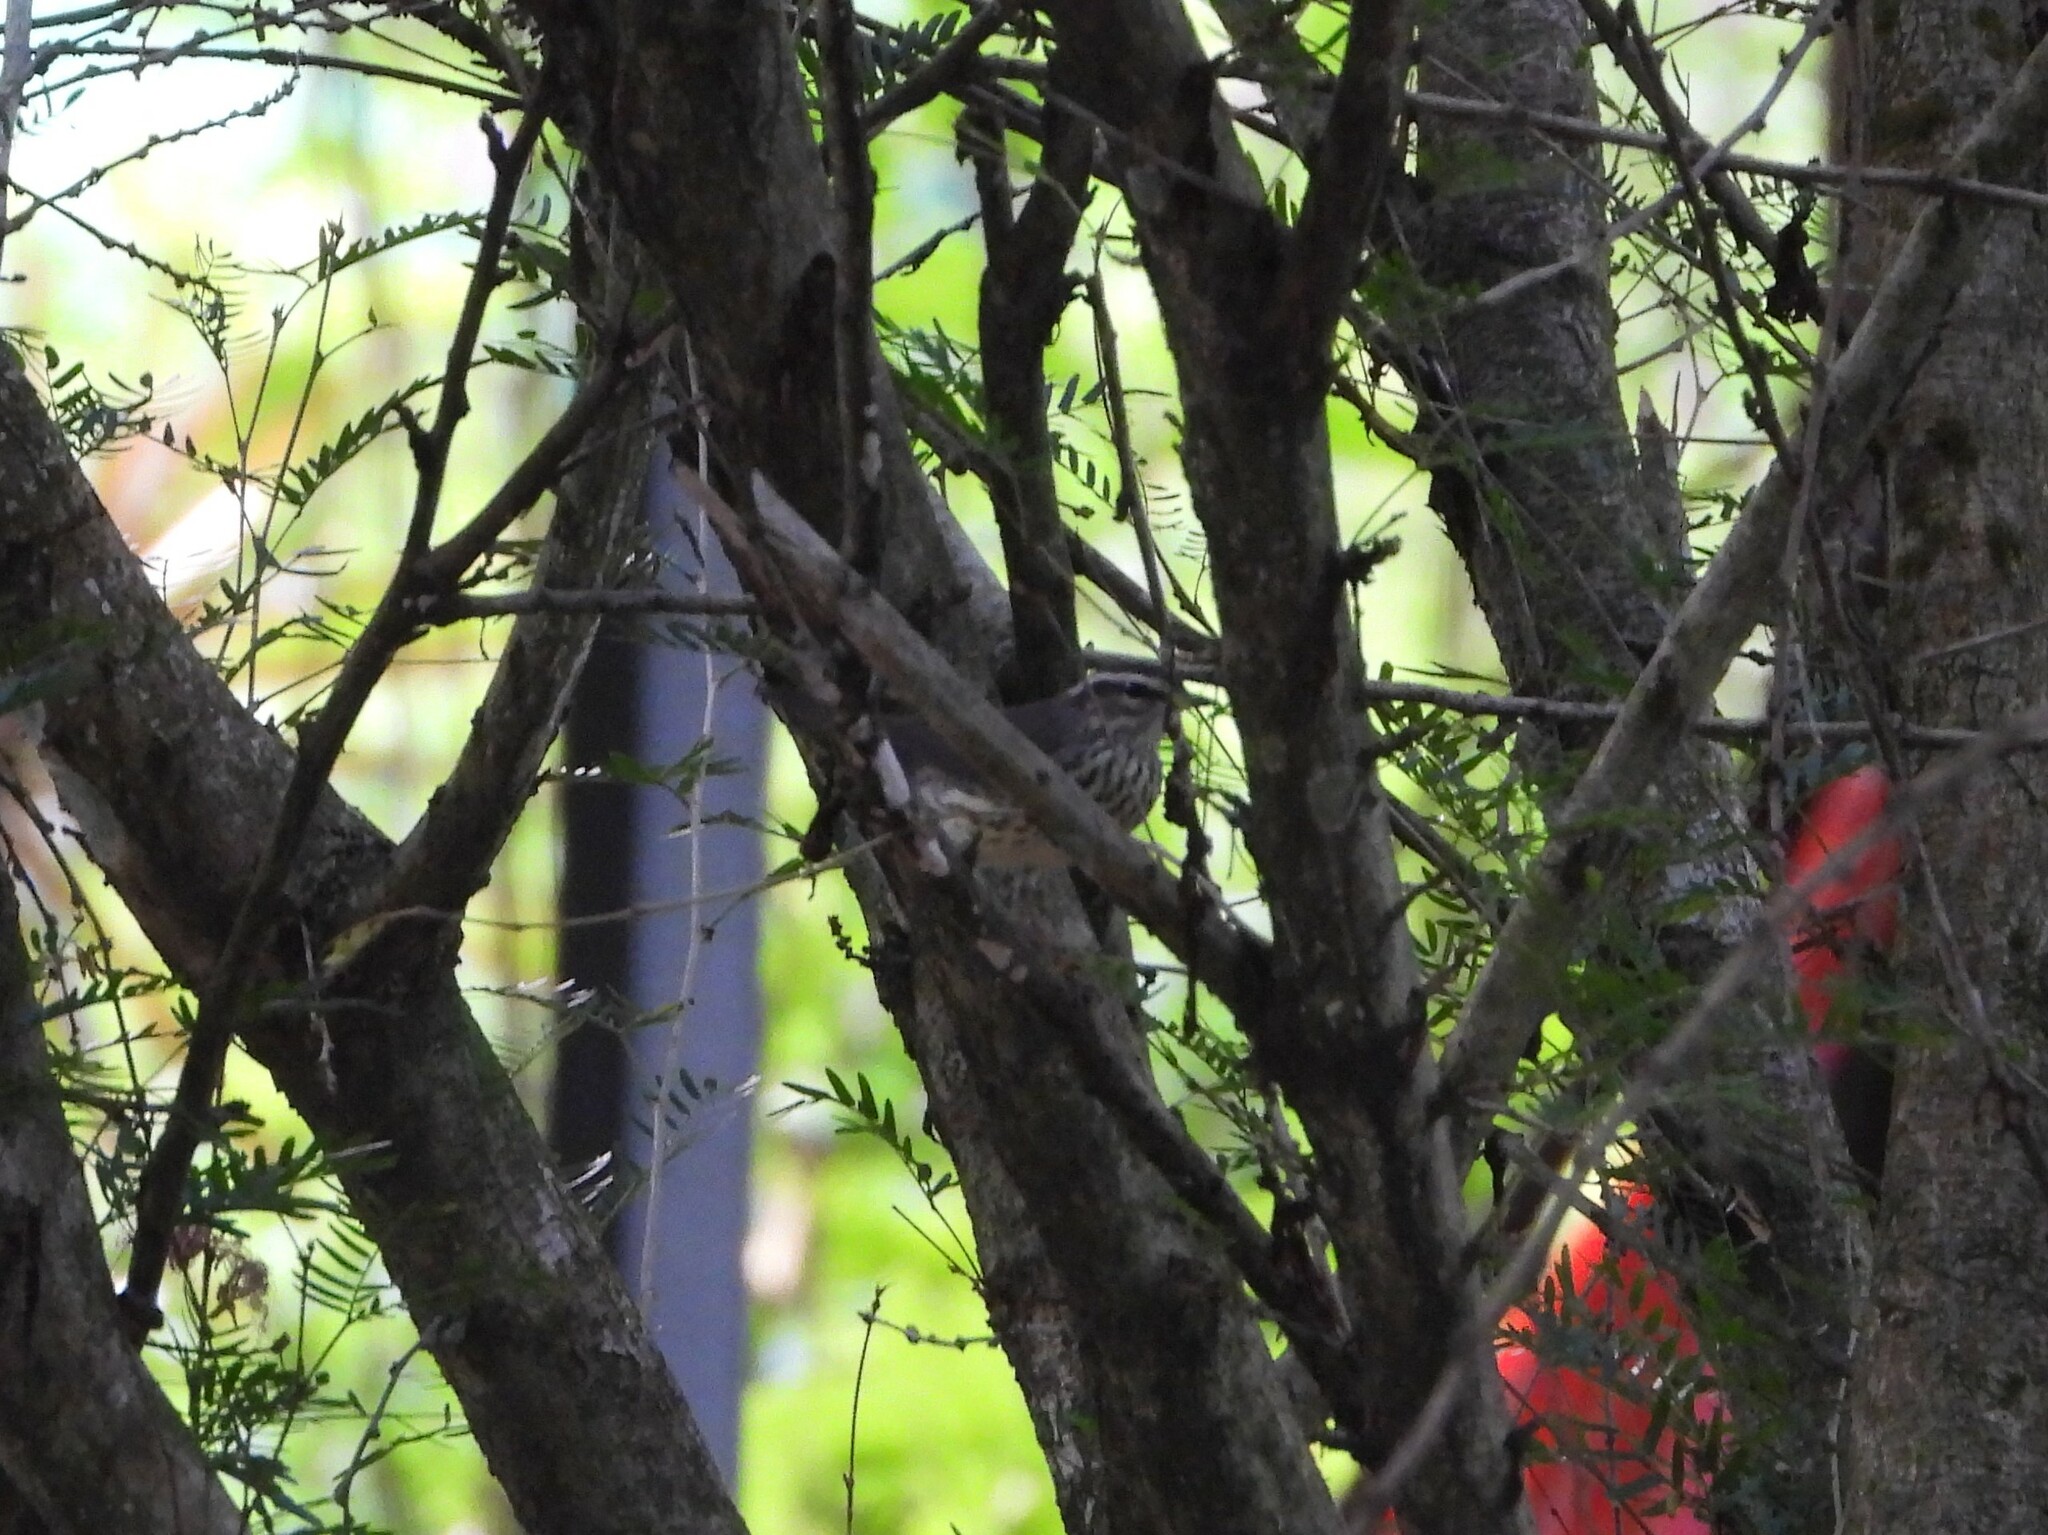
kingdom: Animalia
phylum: Chordata
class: Aves
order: Passeriformes
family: Parulidae
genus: Parkesia
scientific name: Parkesia noveboracensis
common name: Northern waterthrush
